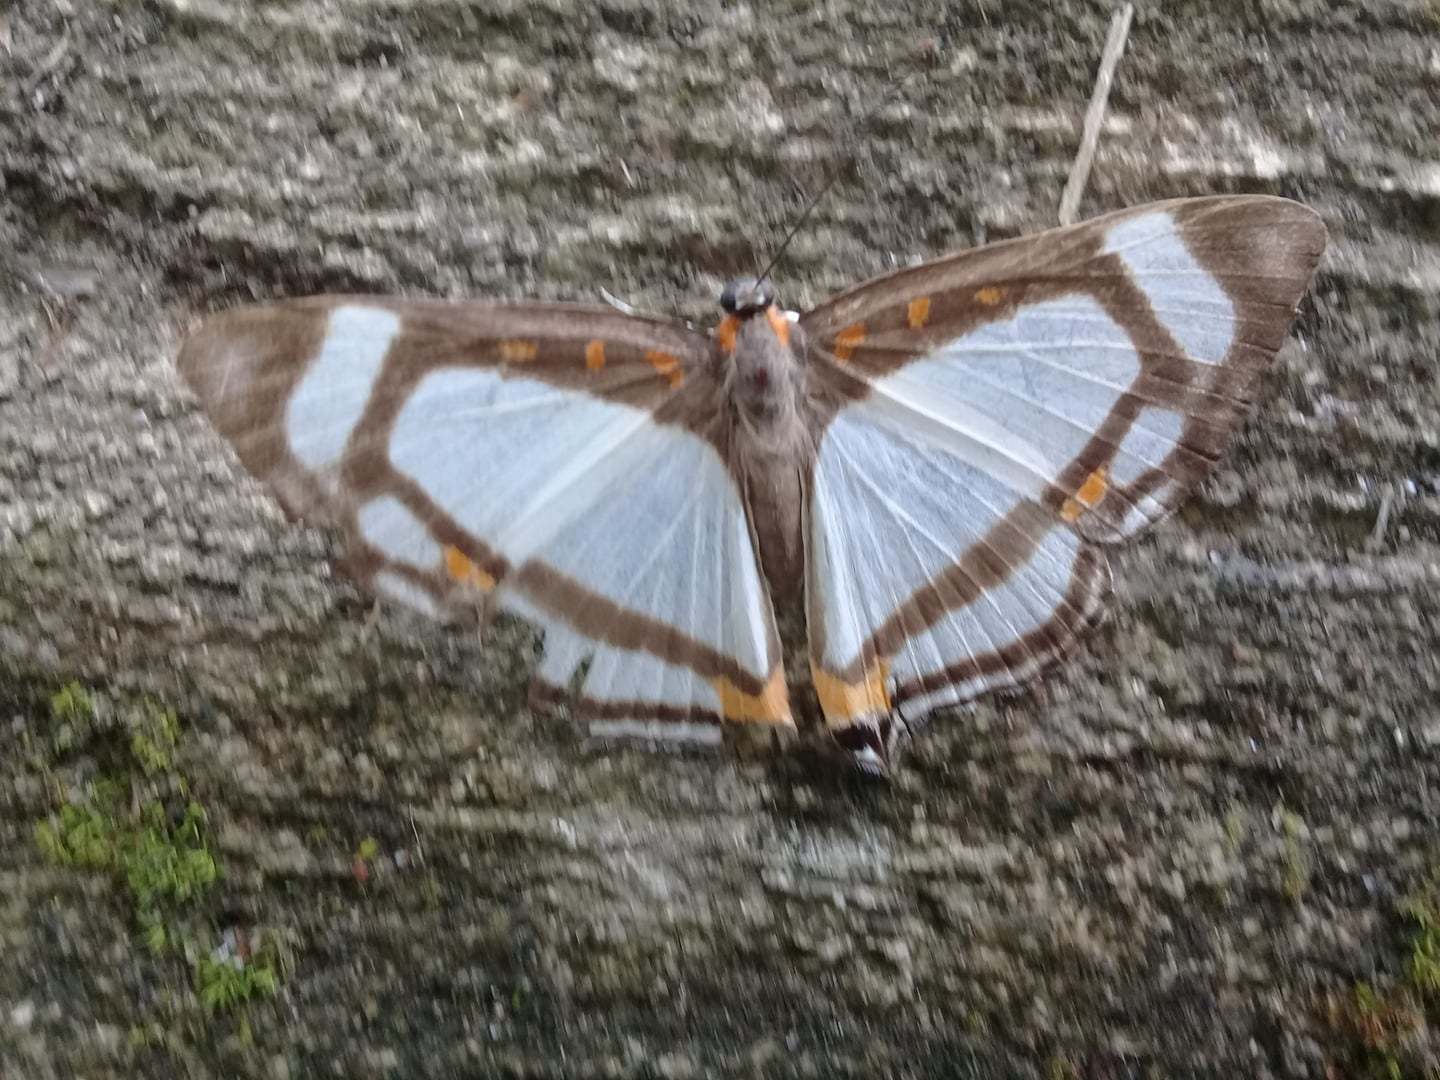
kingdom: Animalia
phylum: Arthropoda
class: Insecta
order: Lepidoptera
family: Riodinidae
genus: Thisbe
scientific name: Thisbe lycorias
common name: Banner metalmark
